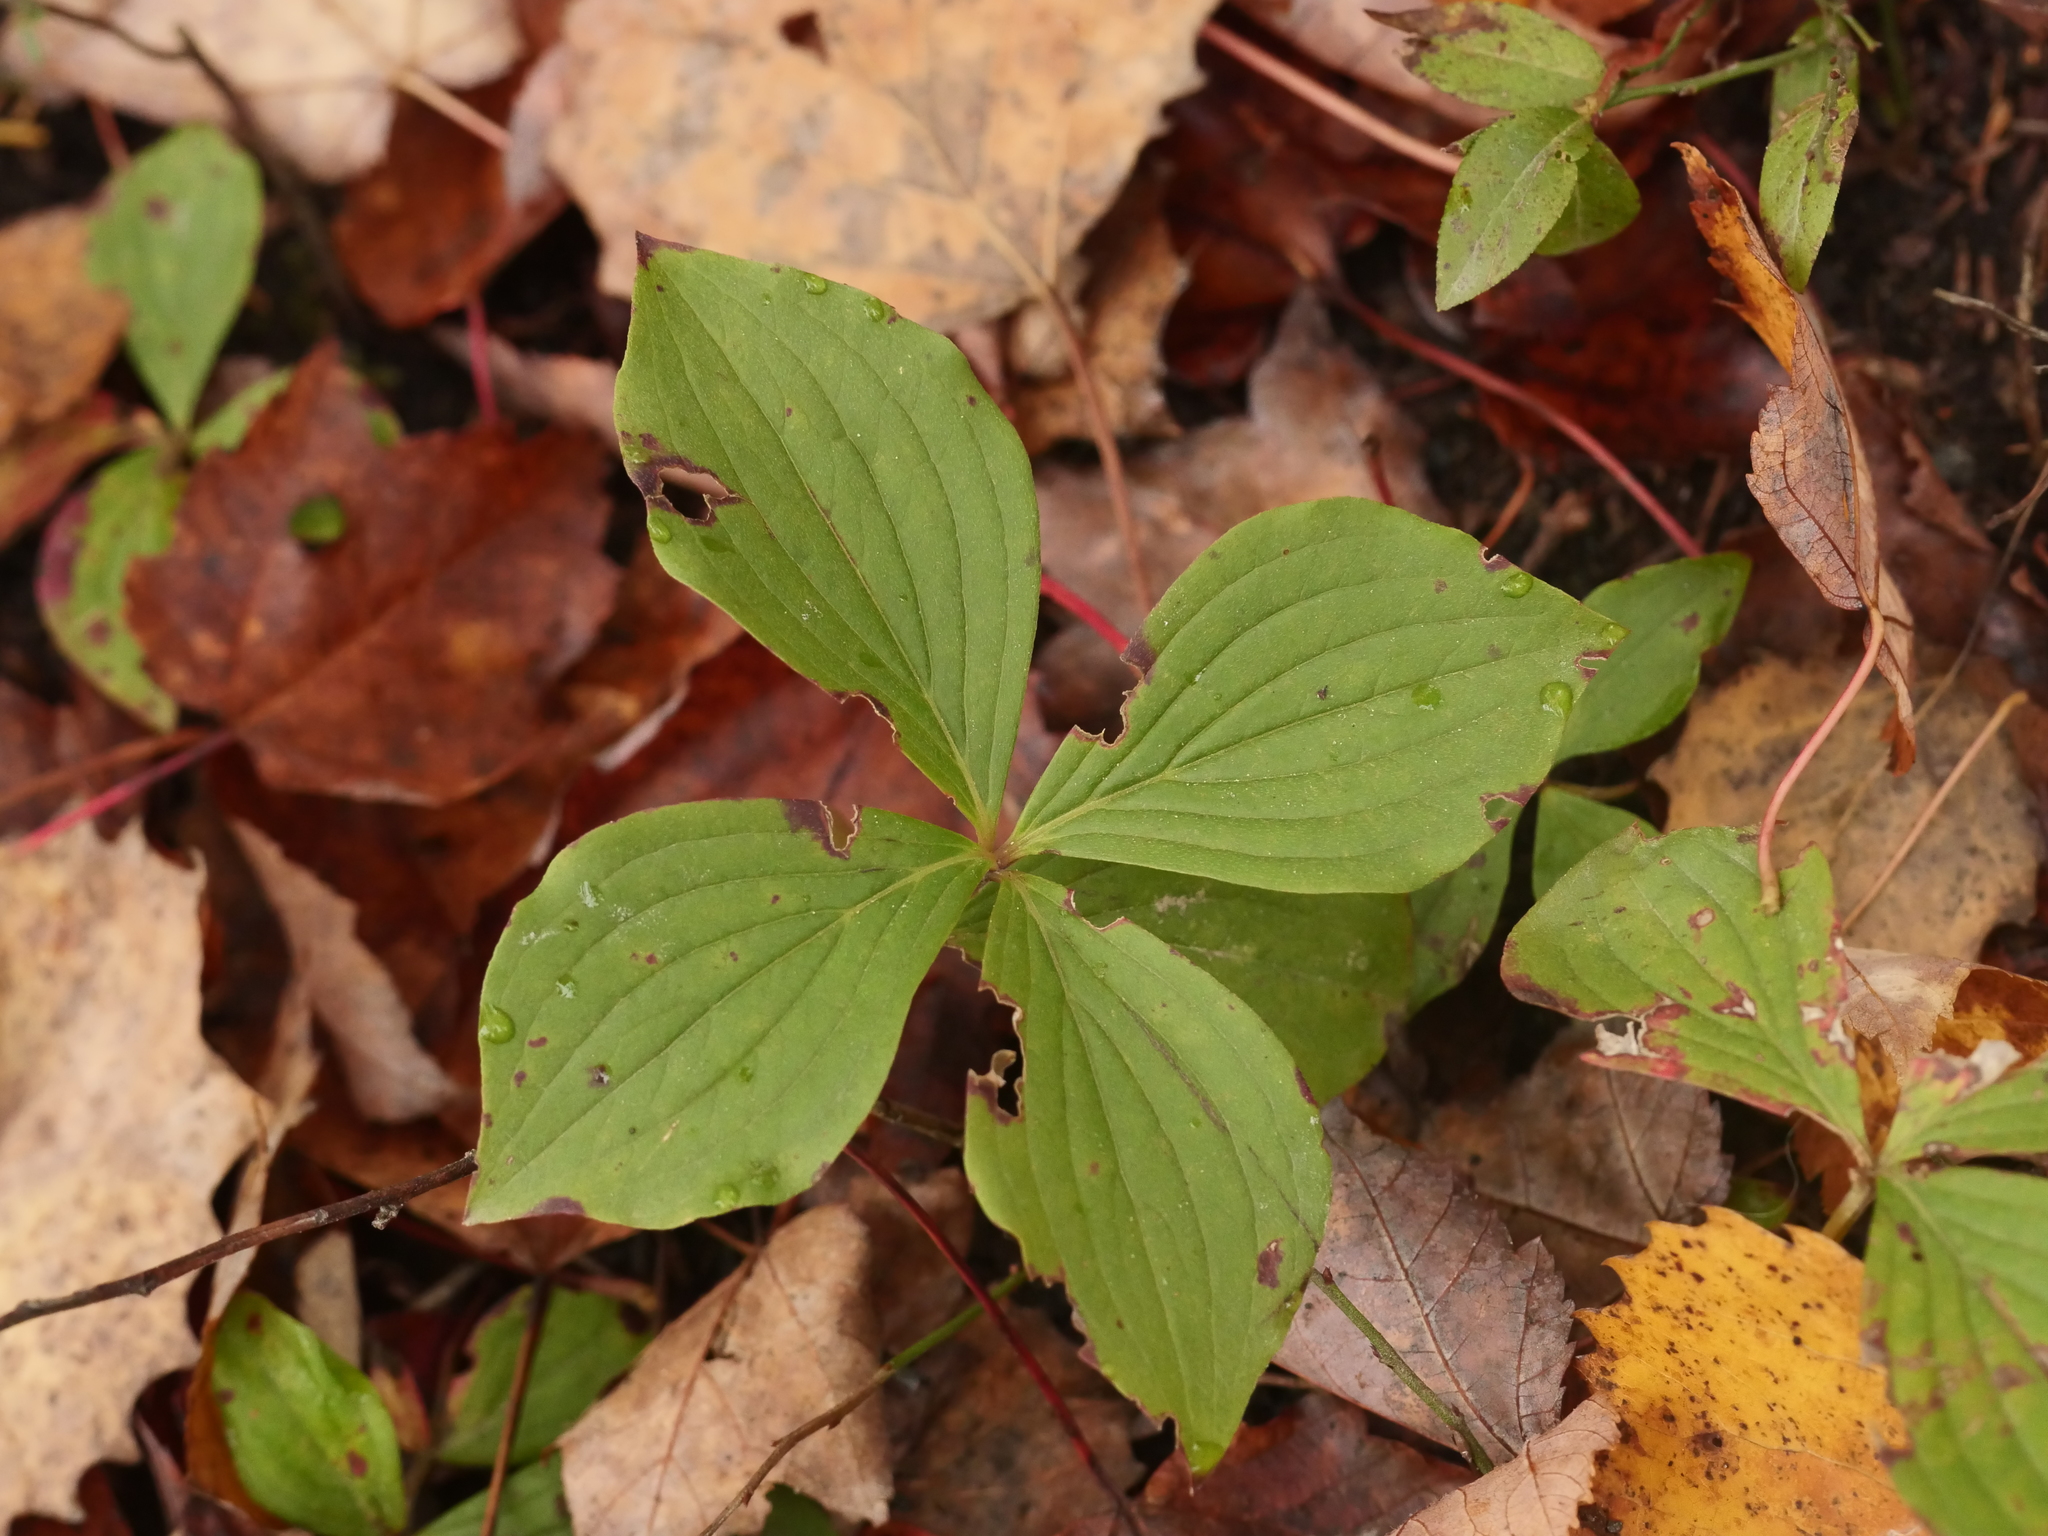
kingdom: Plantae
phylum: Tracheophyta
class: Magnoliopsida
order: Cornales
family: Cornaceae
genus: Cornus
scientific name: Cornus canadensis
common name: Creeping dogwood
